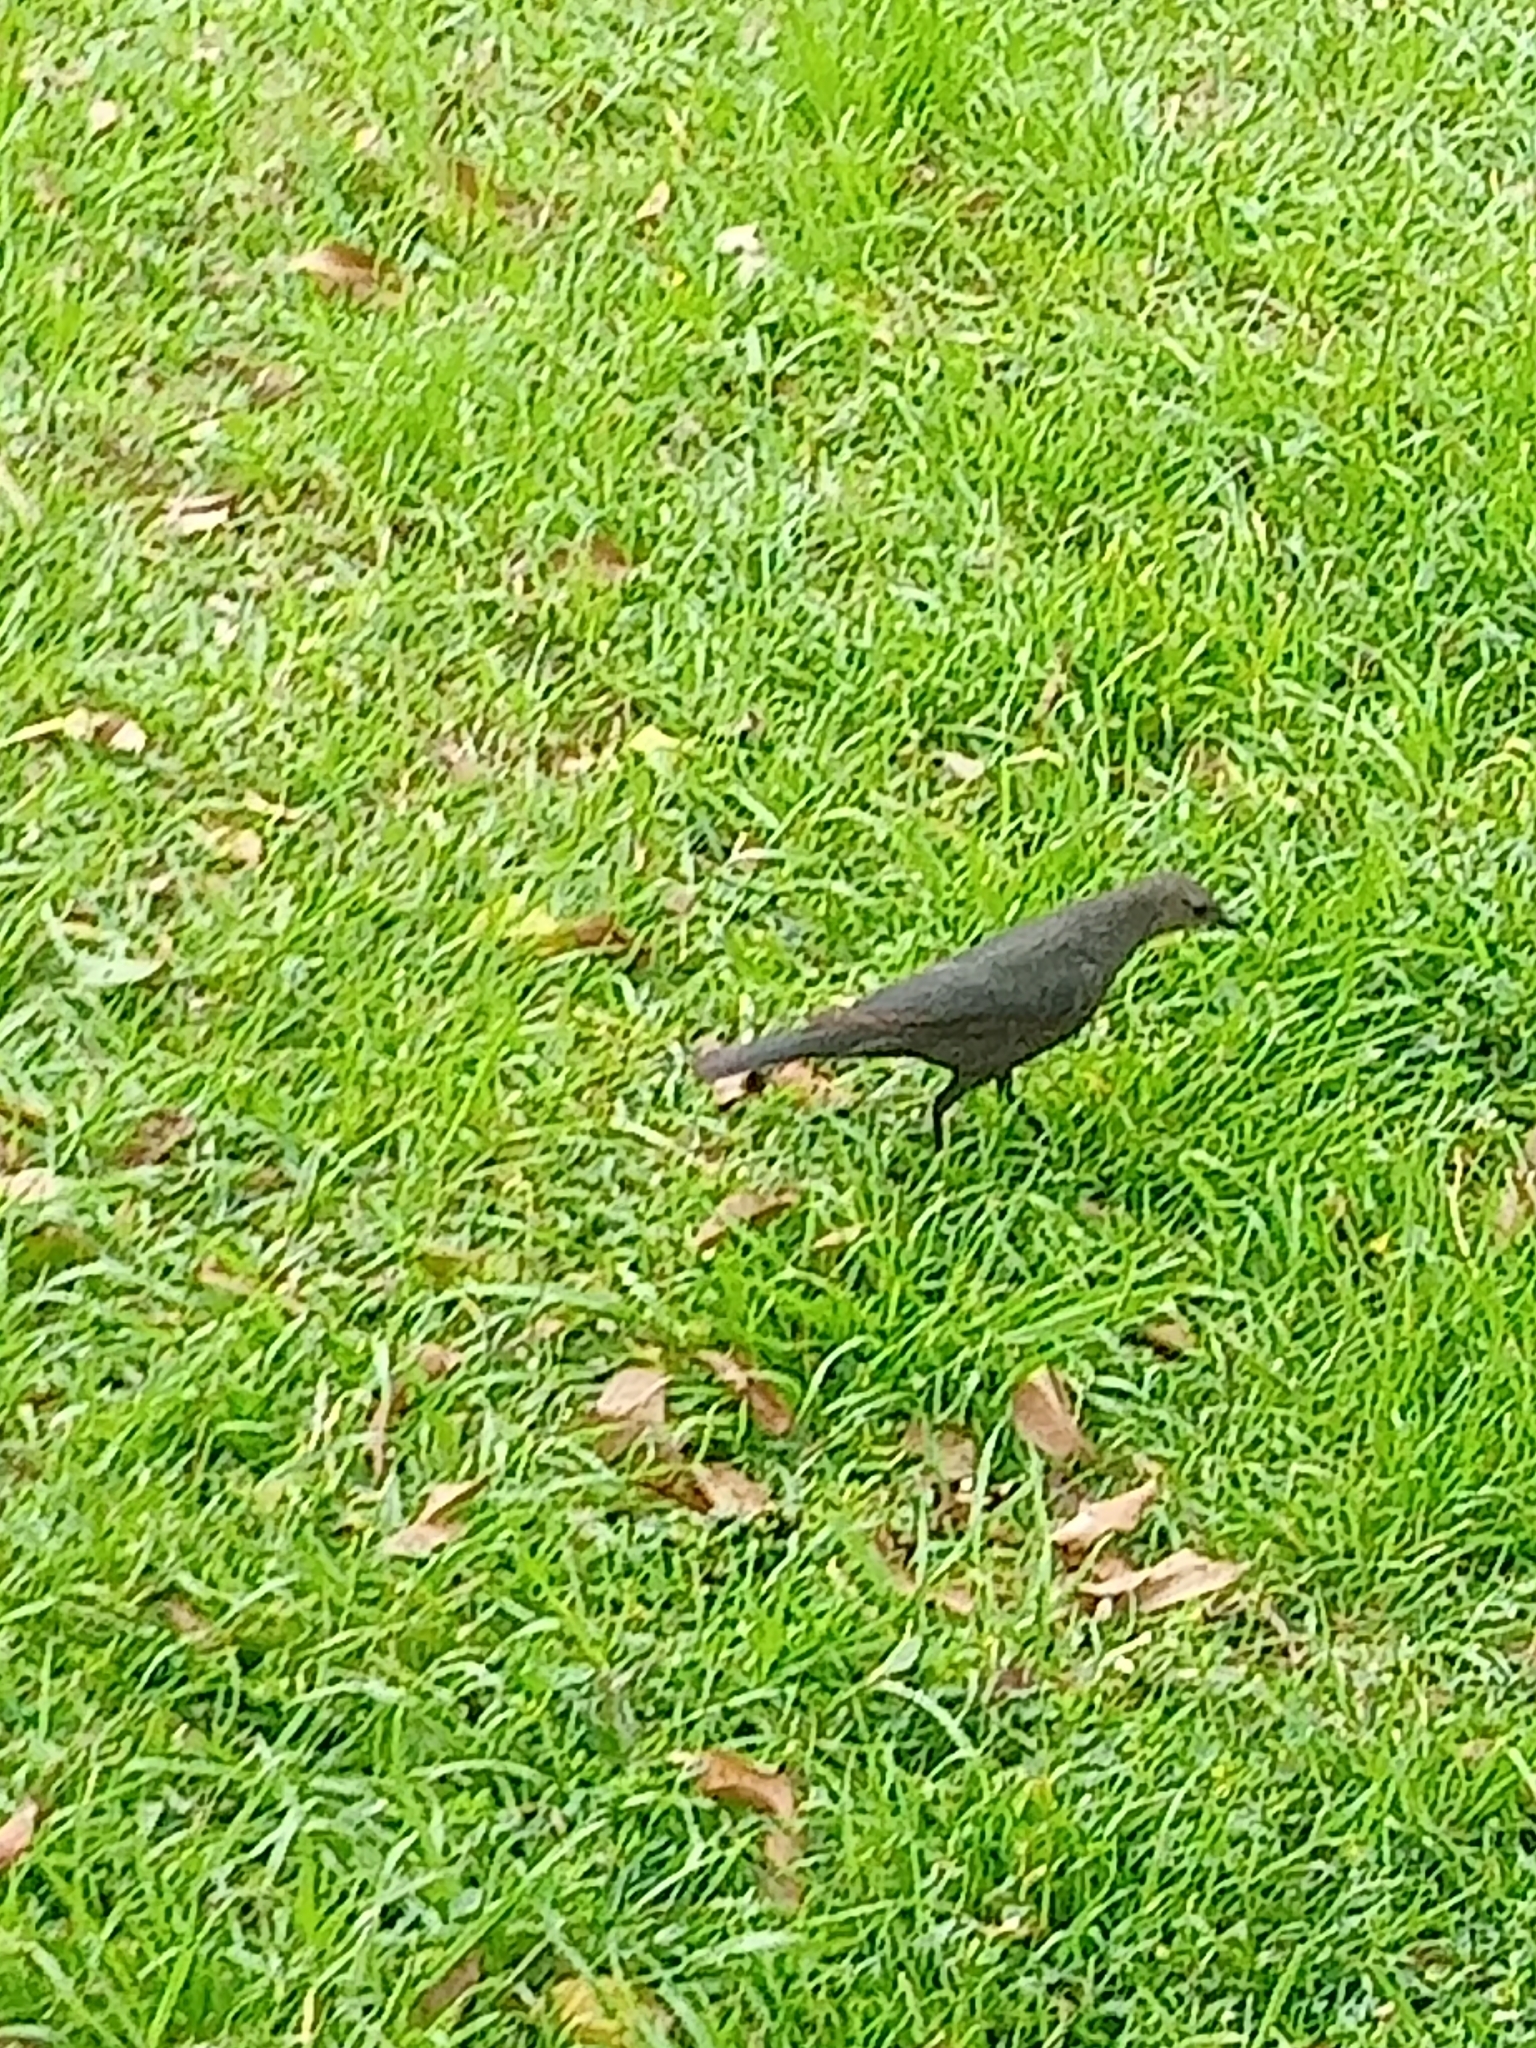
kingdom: Animalia
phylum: Chordata
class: Aves
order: Passeriformes
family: Icteridae
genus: Euphagus
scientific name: Euphagus cyanocephalus
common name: Brewer's blackbird
